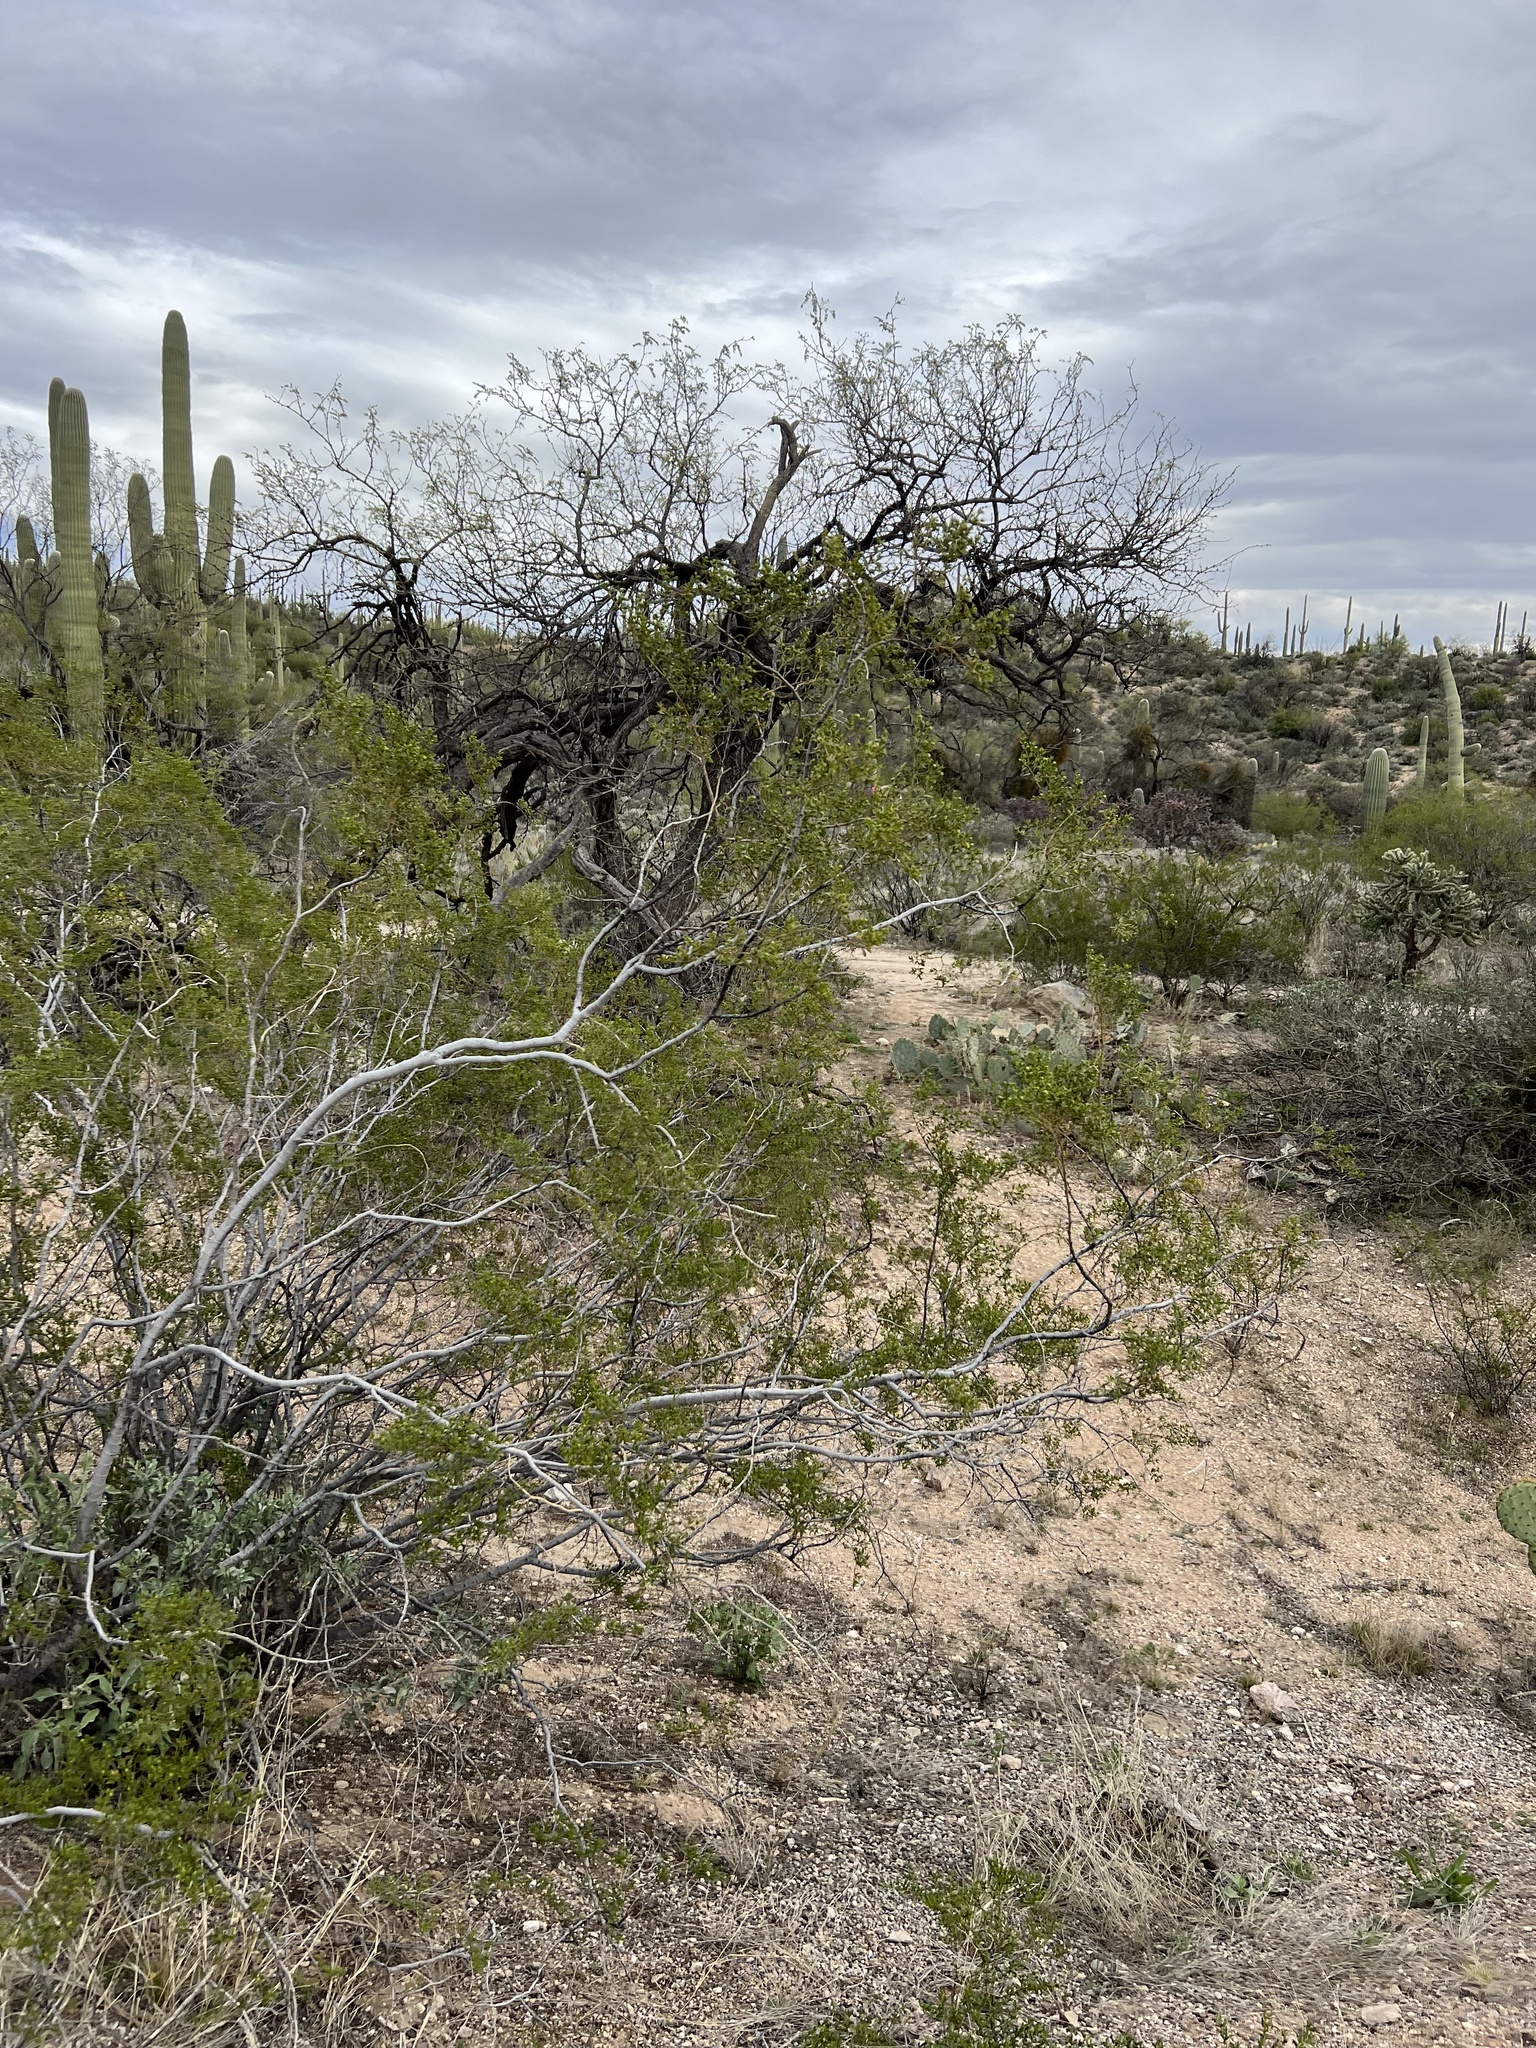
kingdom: Plantae
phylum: Tracheophyta
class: Magnoliopsida
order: Zygophyllales
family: Zygophyllaceae
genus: Larrea
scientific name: Larrea tridentata
